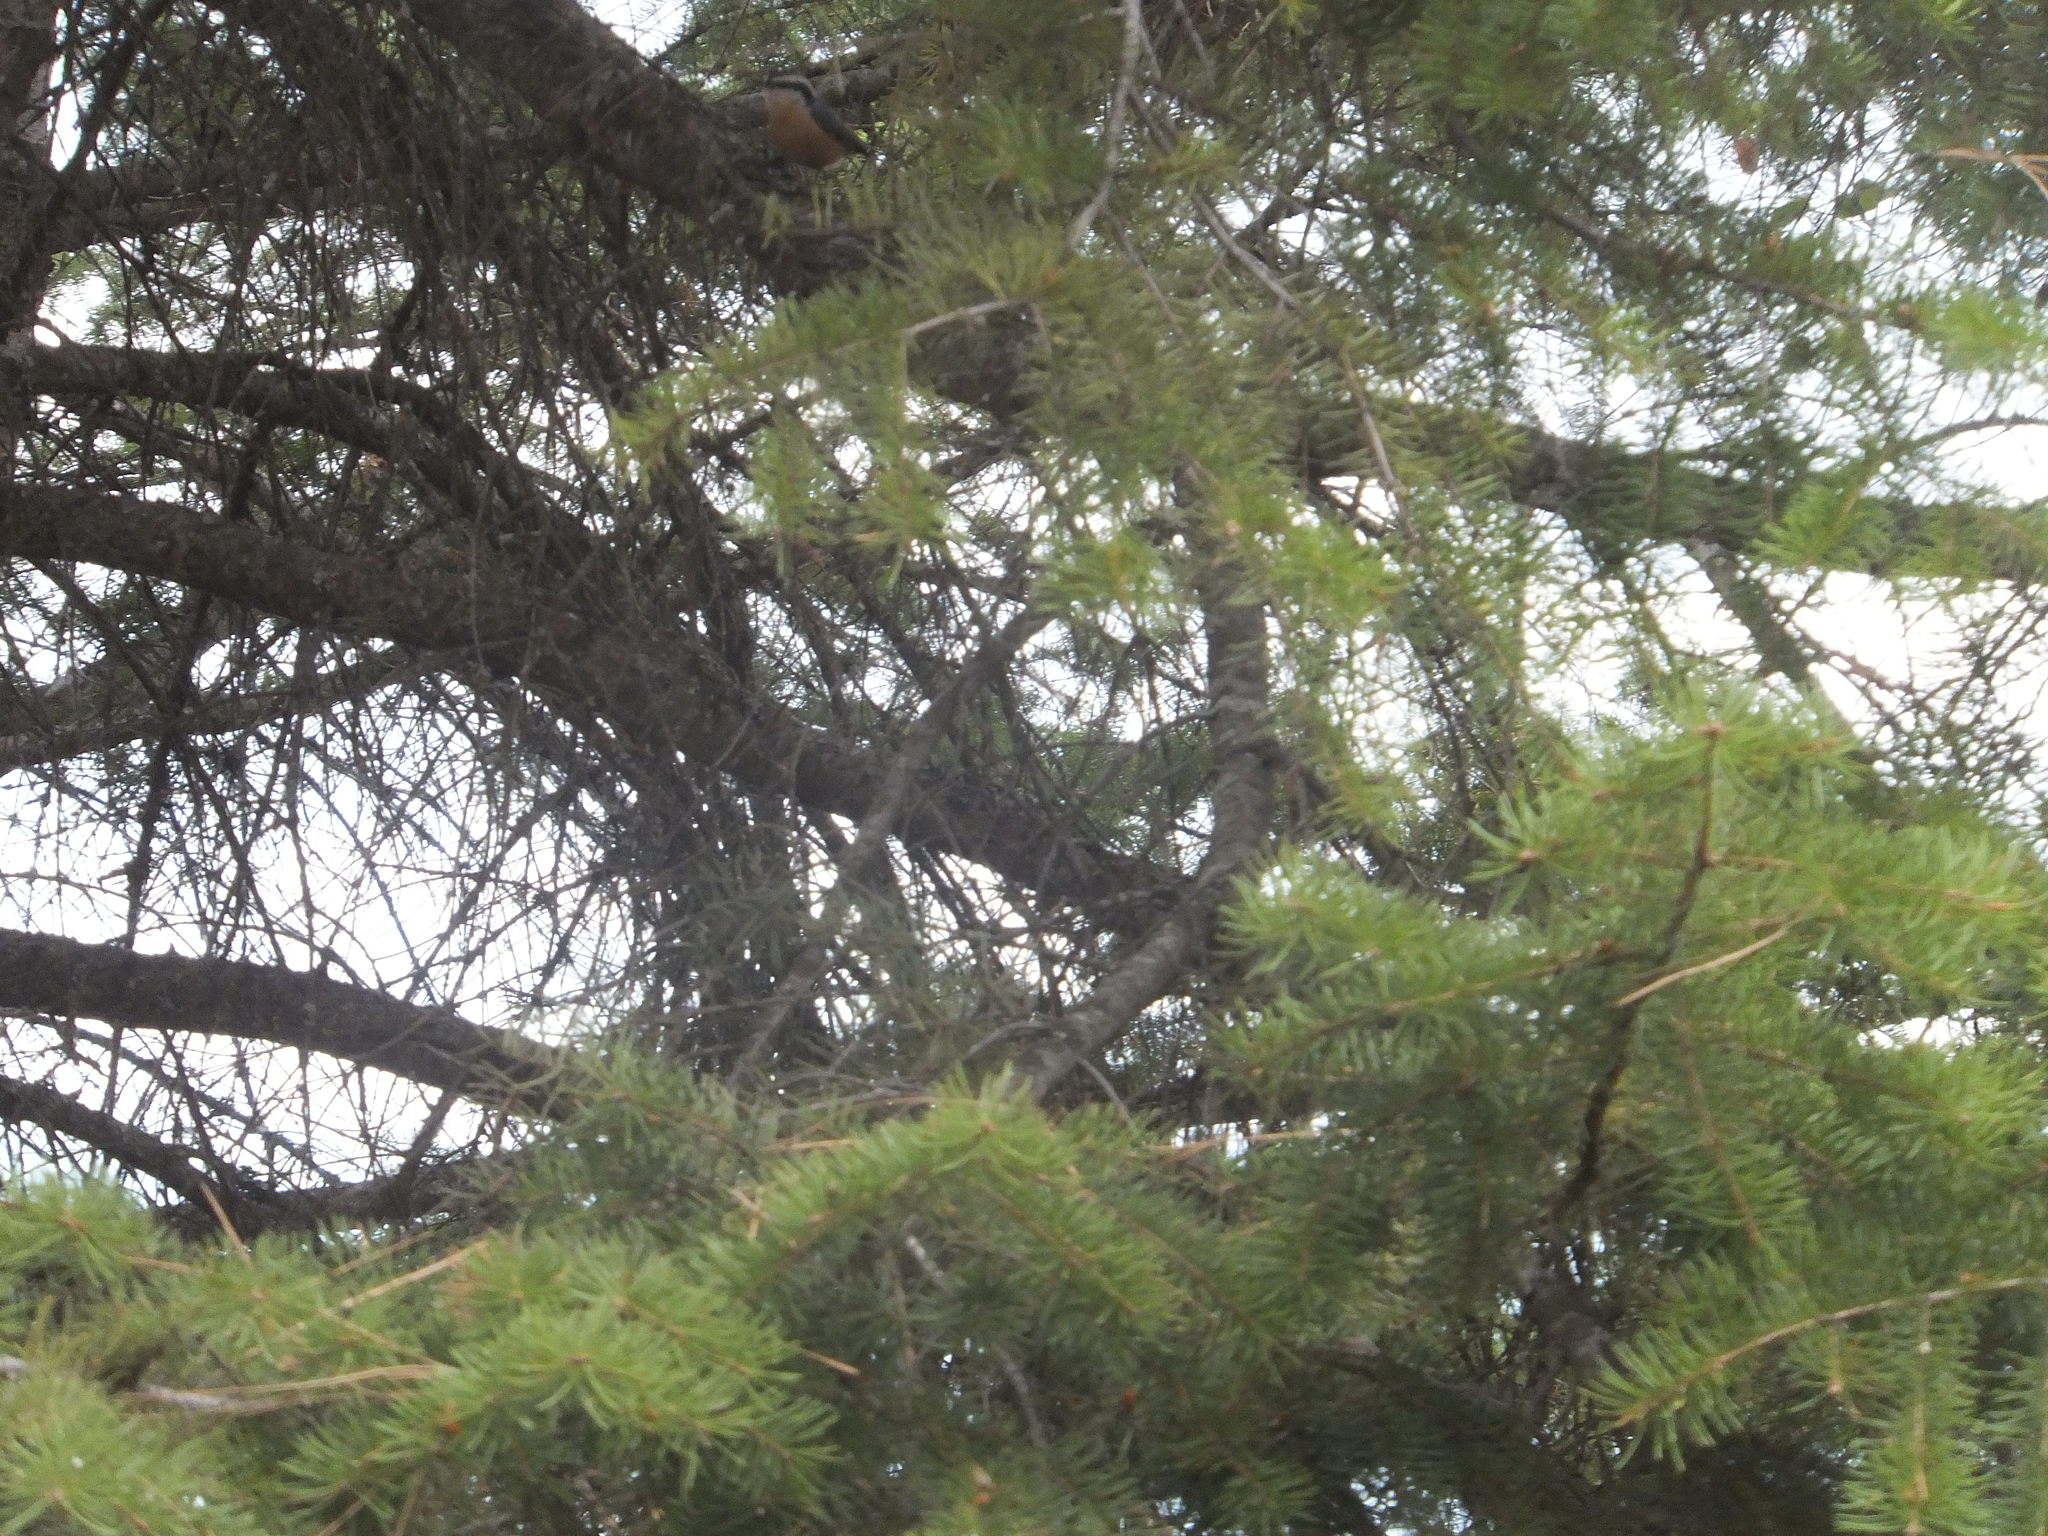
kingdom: Animalia
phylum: Chordata
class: Aves
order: Passeriformes
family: Sittidae
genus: Sitta
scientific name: Sitta canadensis
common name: Red-breasted nuthatch
